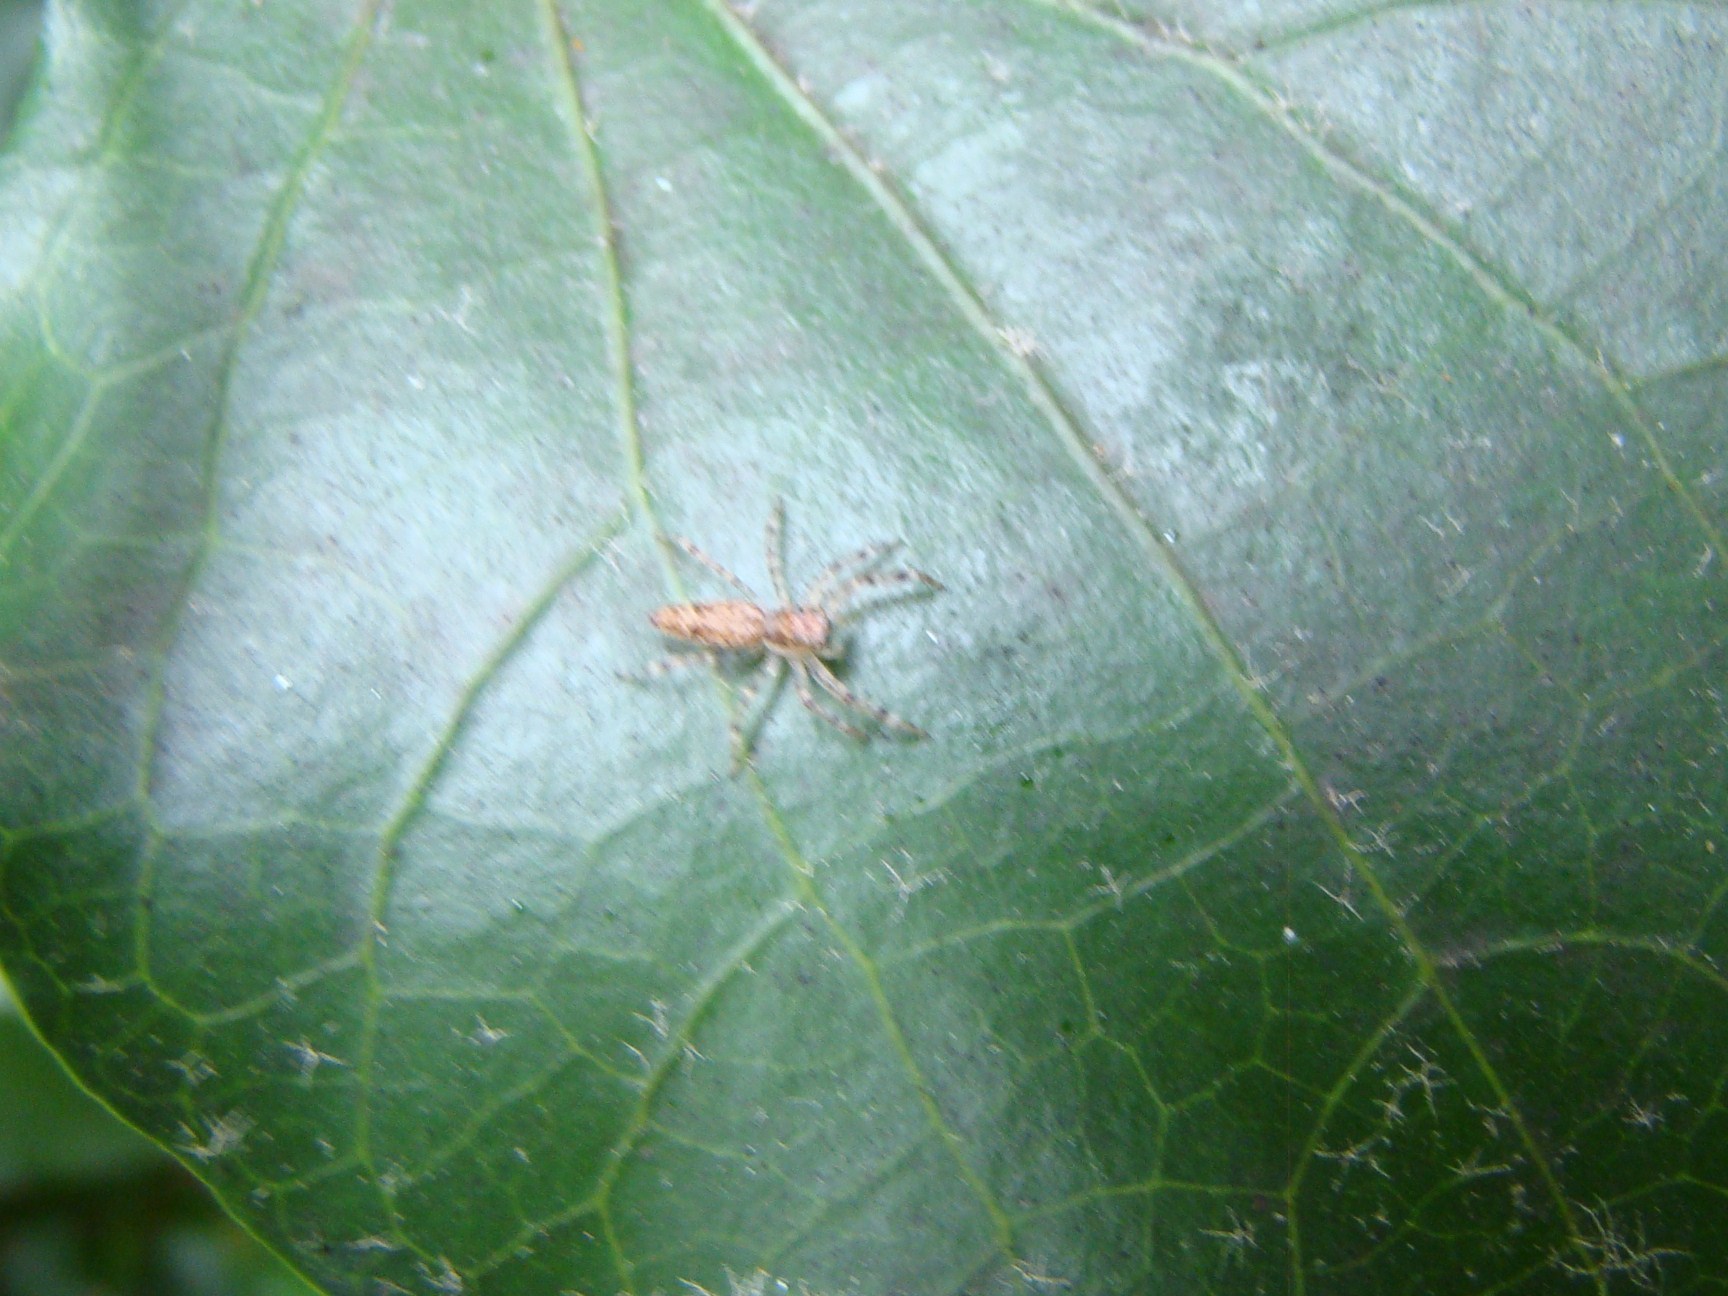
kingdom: Animalia
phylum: Arthropoda
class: Arachnida
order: Araneae
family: Salticidae
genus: Helpis
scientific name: Helpis minitabunda
